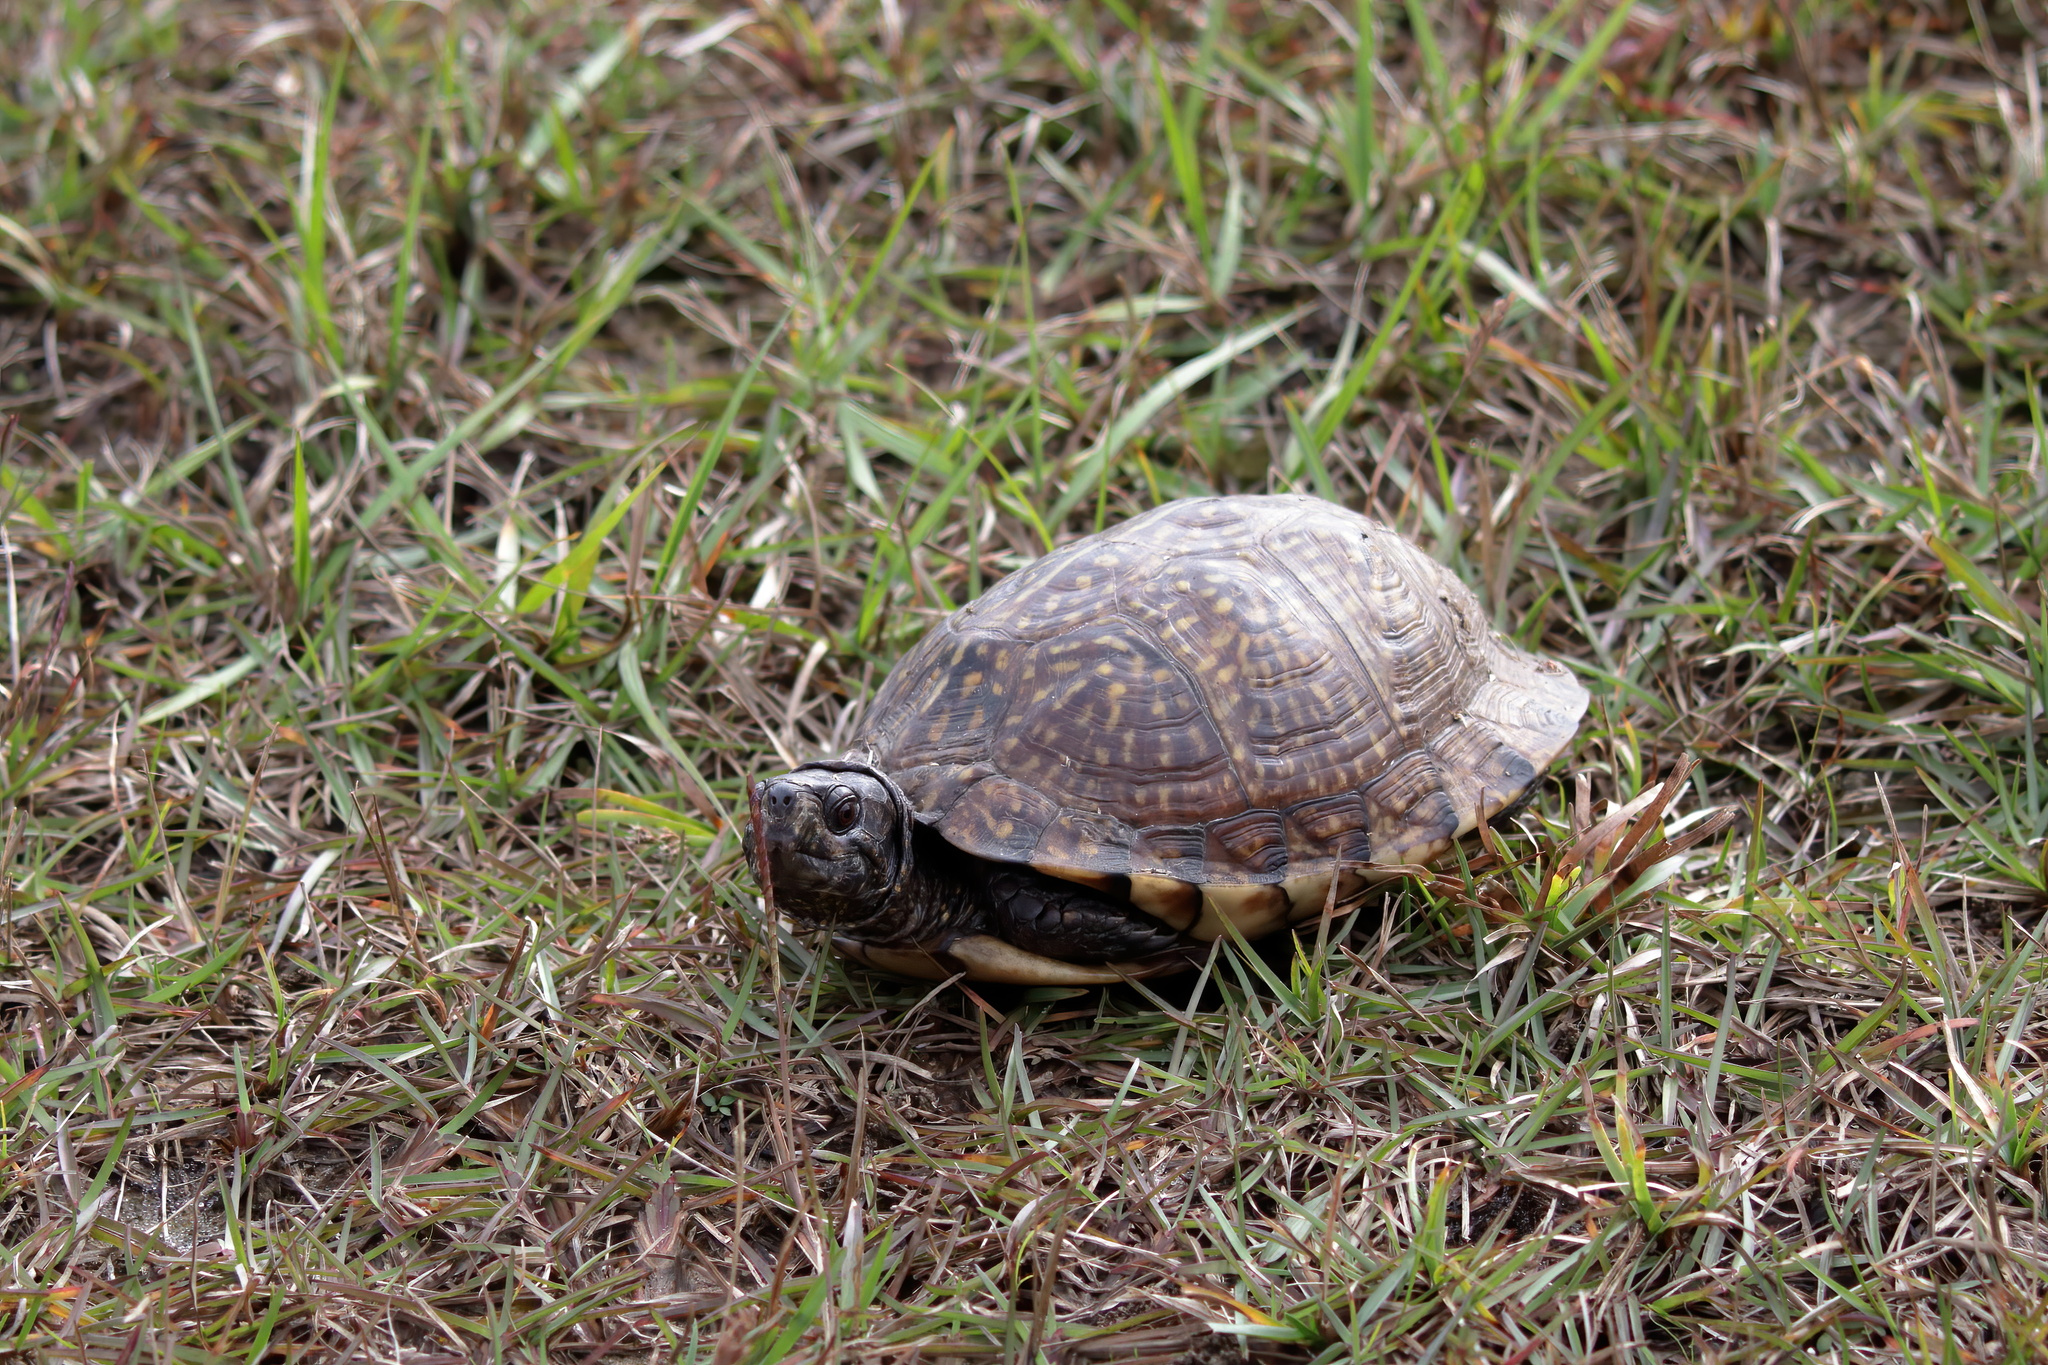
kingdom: Animalia
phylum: Chordata
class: Testudines
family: Emydidae
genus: Terrapene
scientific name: Terrapene carolina
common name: Common box turtle
